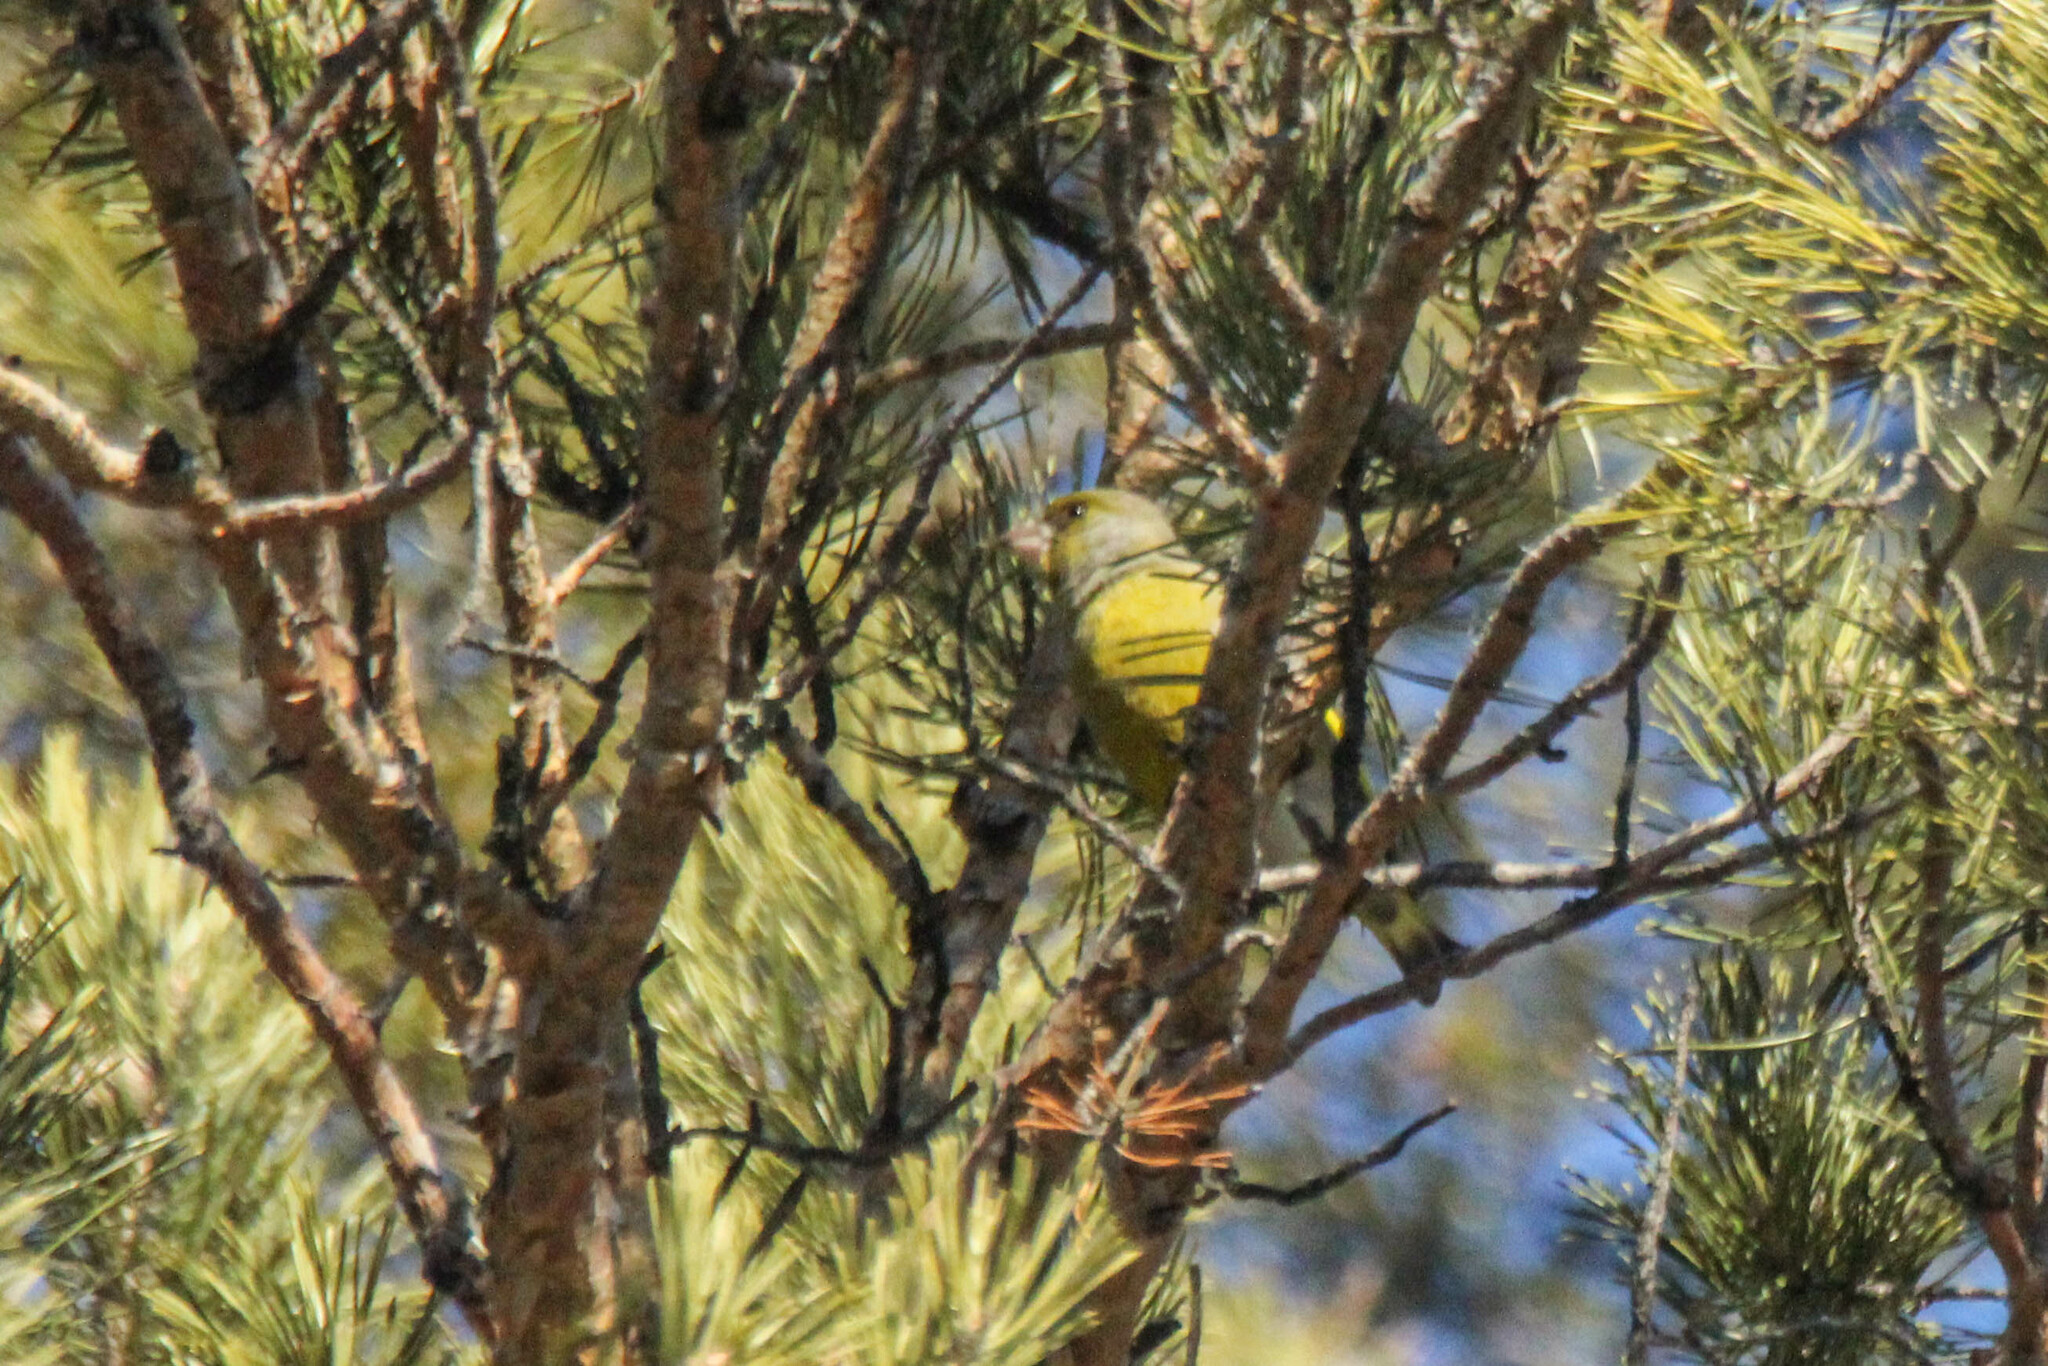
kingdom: Plantae
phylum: Tracheophyta
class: Liliopsida
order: Poales
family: Poaceae
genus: Chloris
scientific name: Chloris chloris
